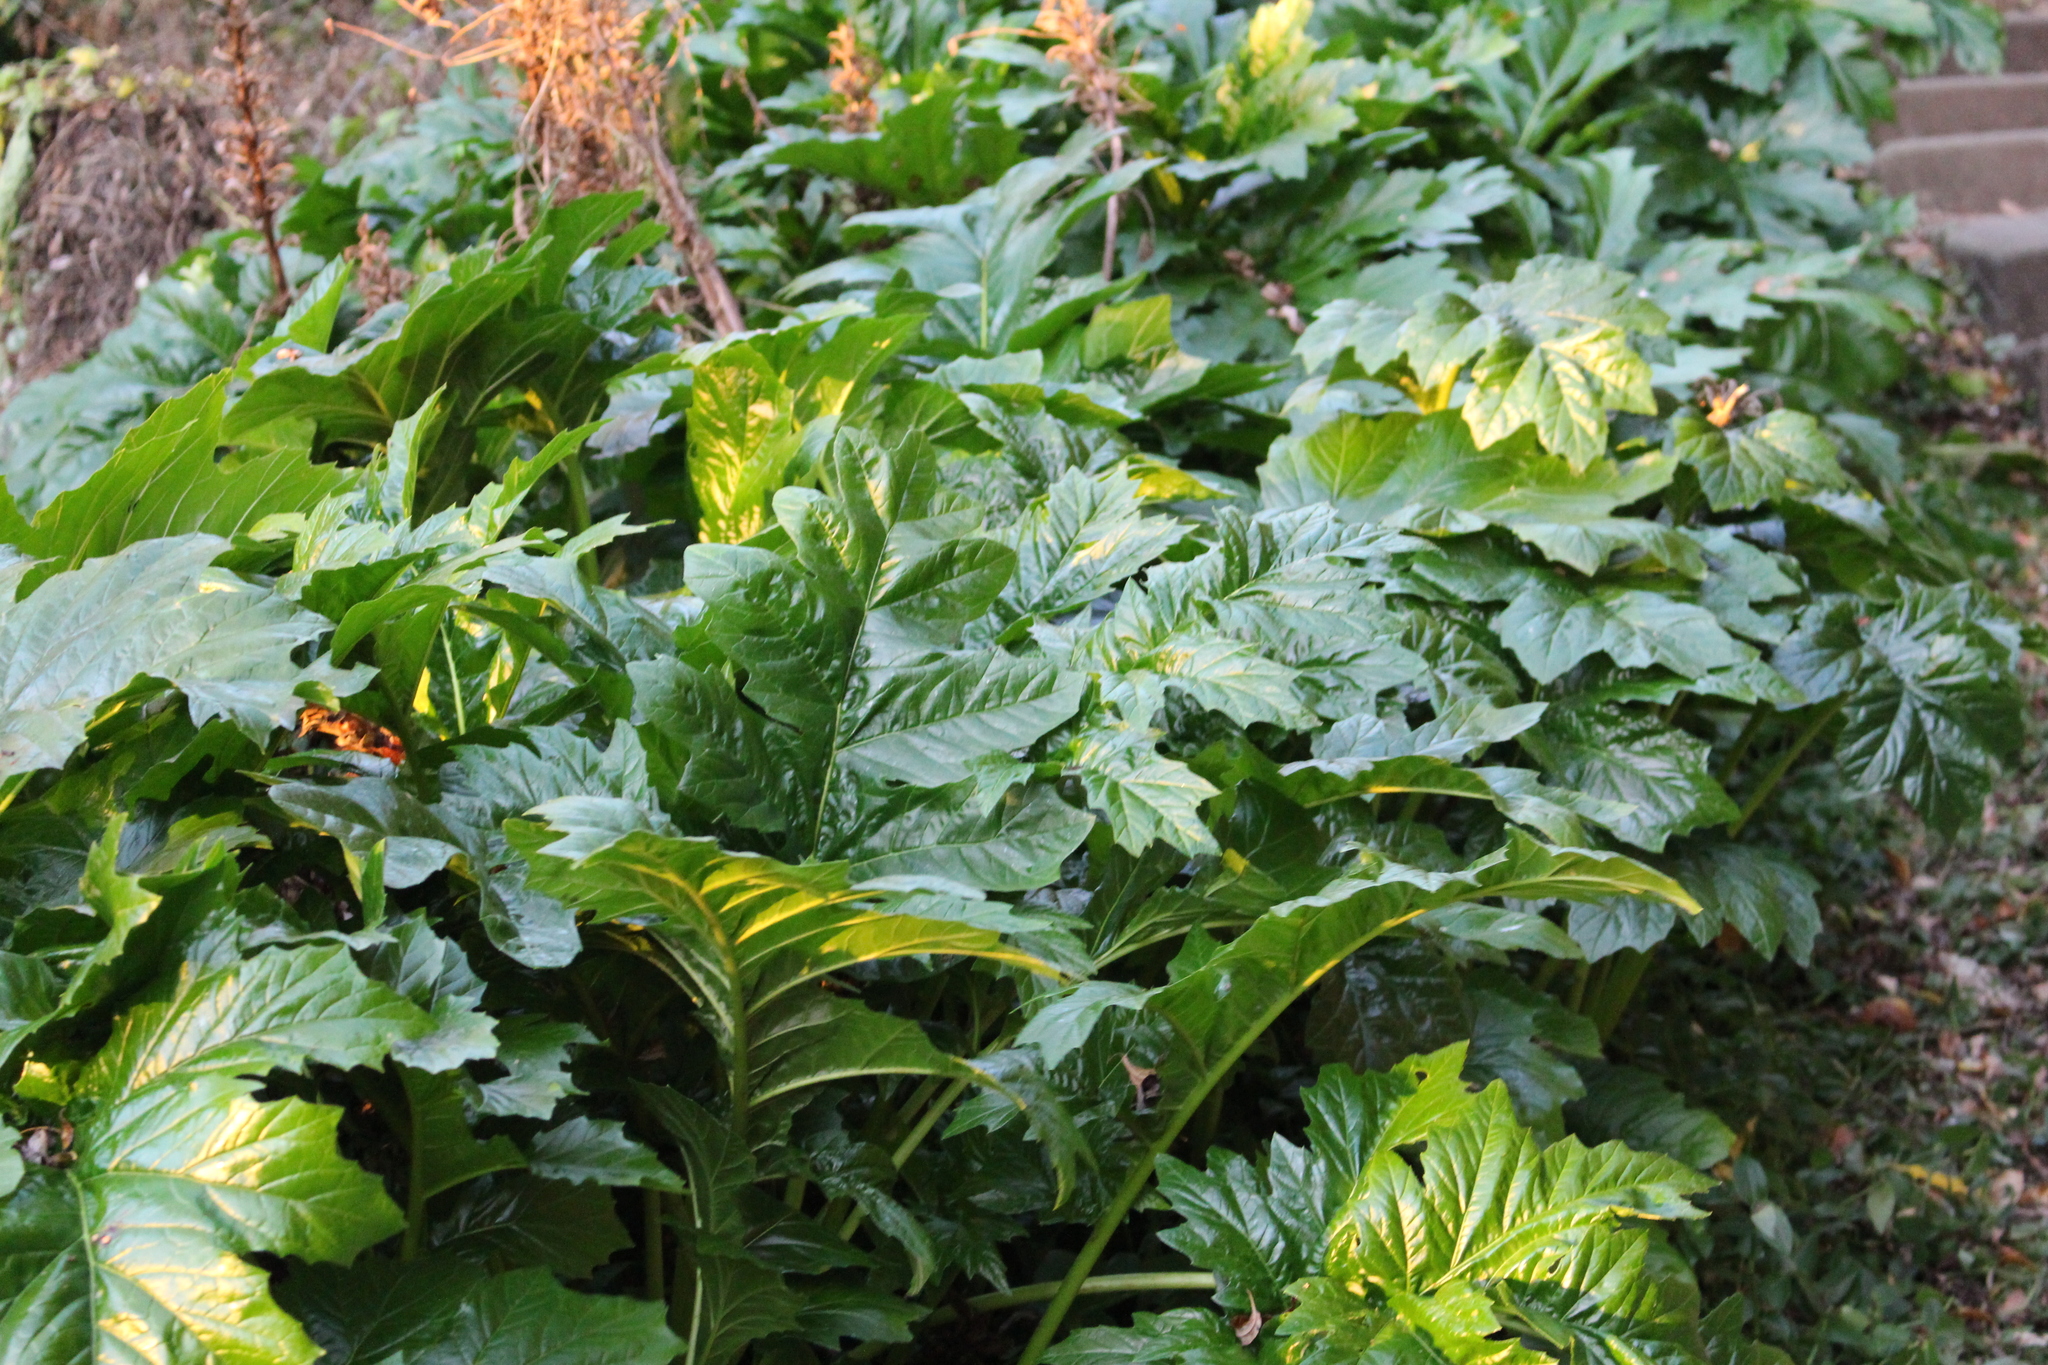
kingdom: Plantae
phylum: Tracheophyta
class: Magnoliopsida
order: Lamiales
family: Acanthaceae
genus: Acanthus
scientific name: Acanthus mollis
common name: Bear's-breech
